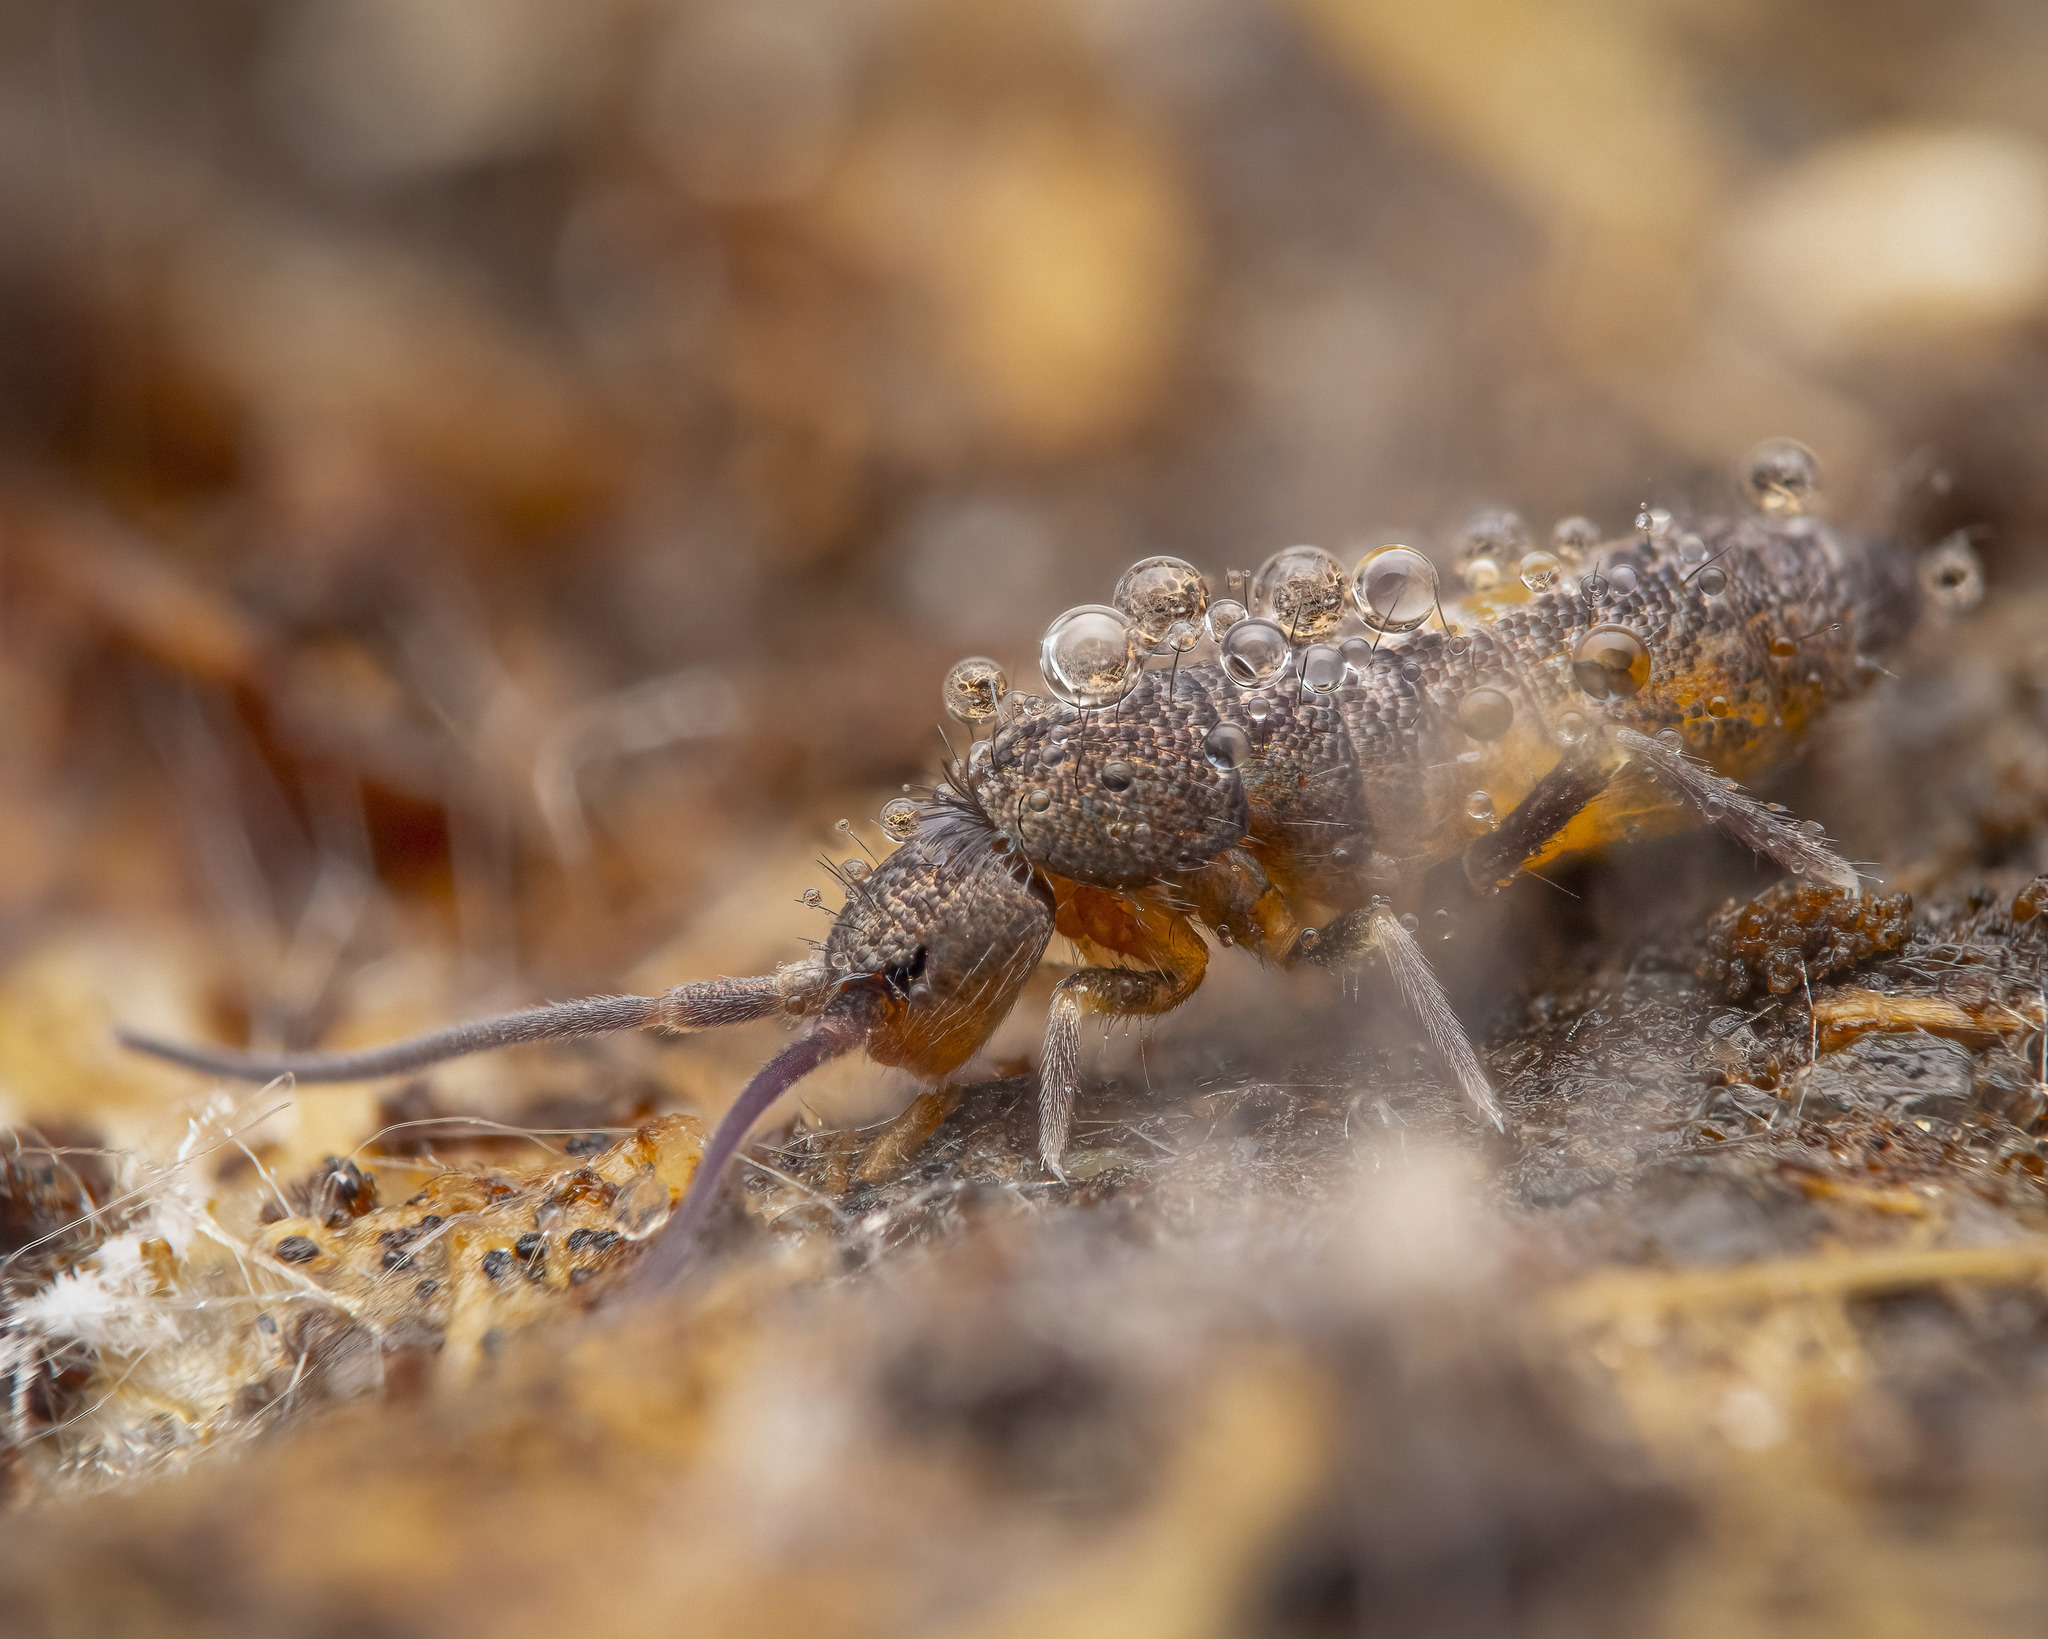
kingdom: Animalia
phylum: Arthropoda
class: Collembola
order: Entomobryomorpha
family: Tomoceridae
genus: Tomocerus
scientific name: Tomocerus minor
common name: Springtail
